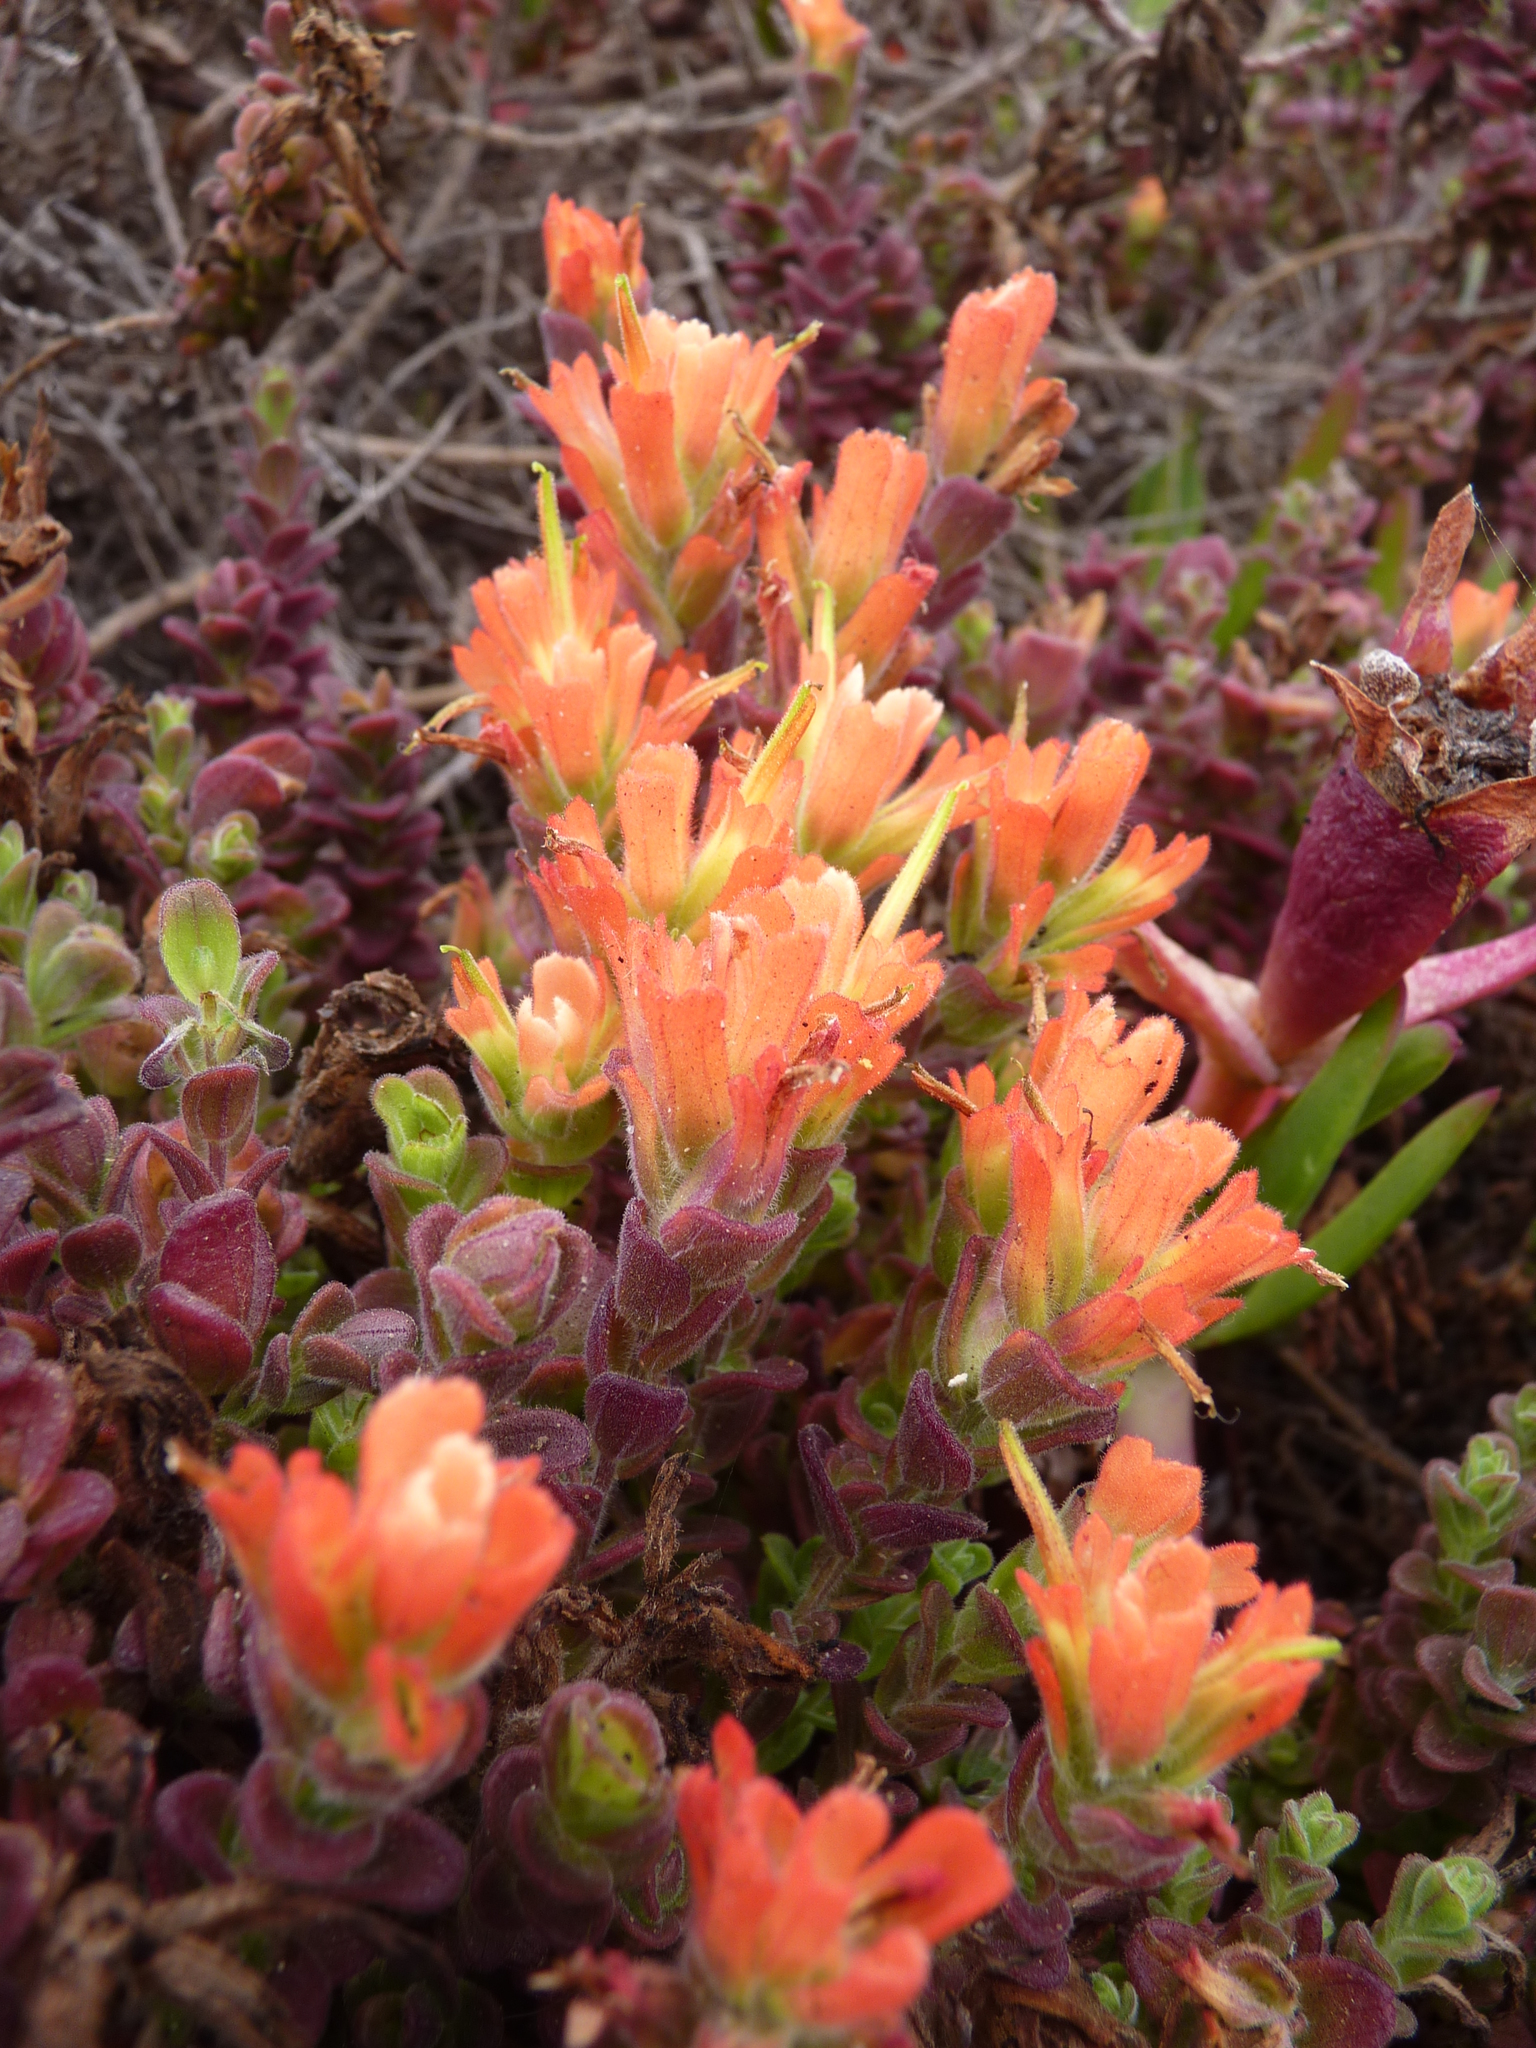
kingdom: Plantae
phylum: Tracheophyta
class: Magnoliopsida
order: Lamiales
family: Orobanchaceae
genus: Castilleja
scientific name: Castilleja latifolia
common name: Monterey indian paintbrush
